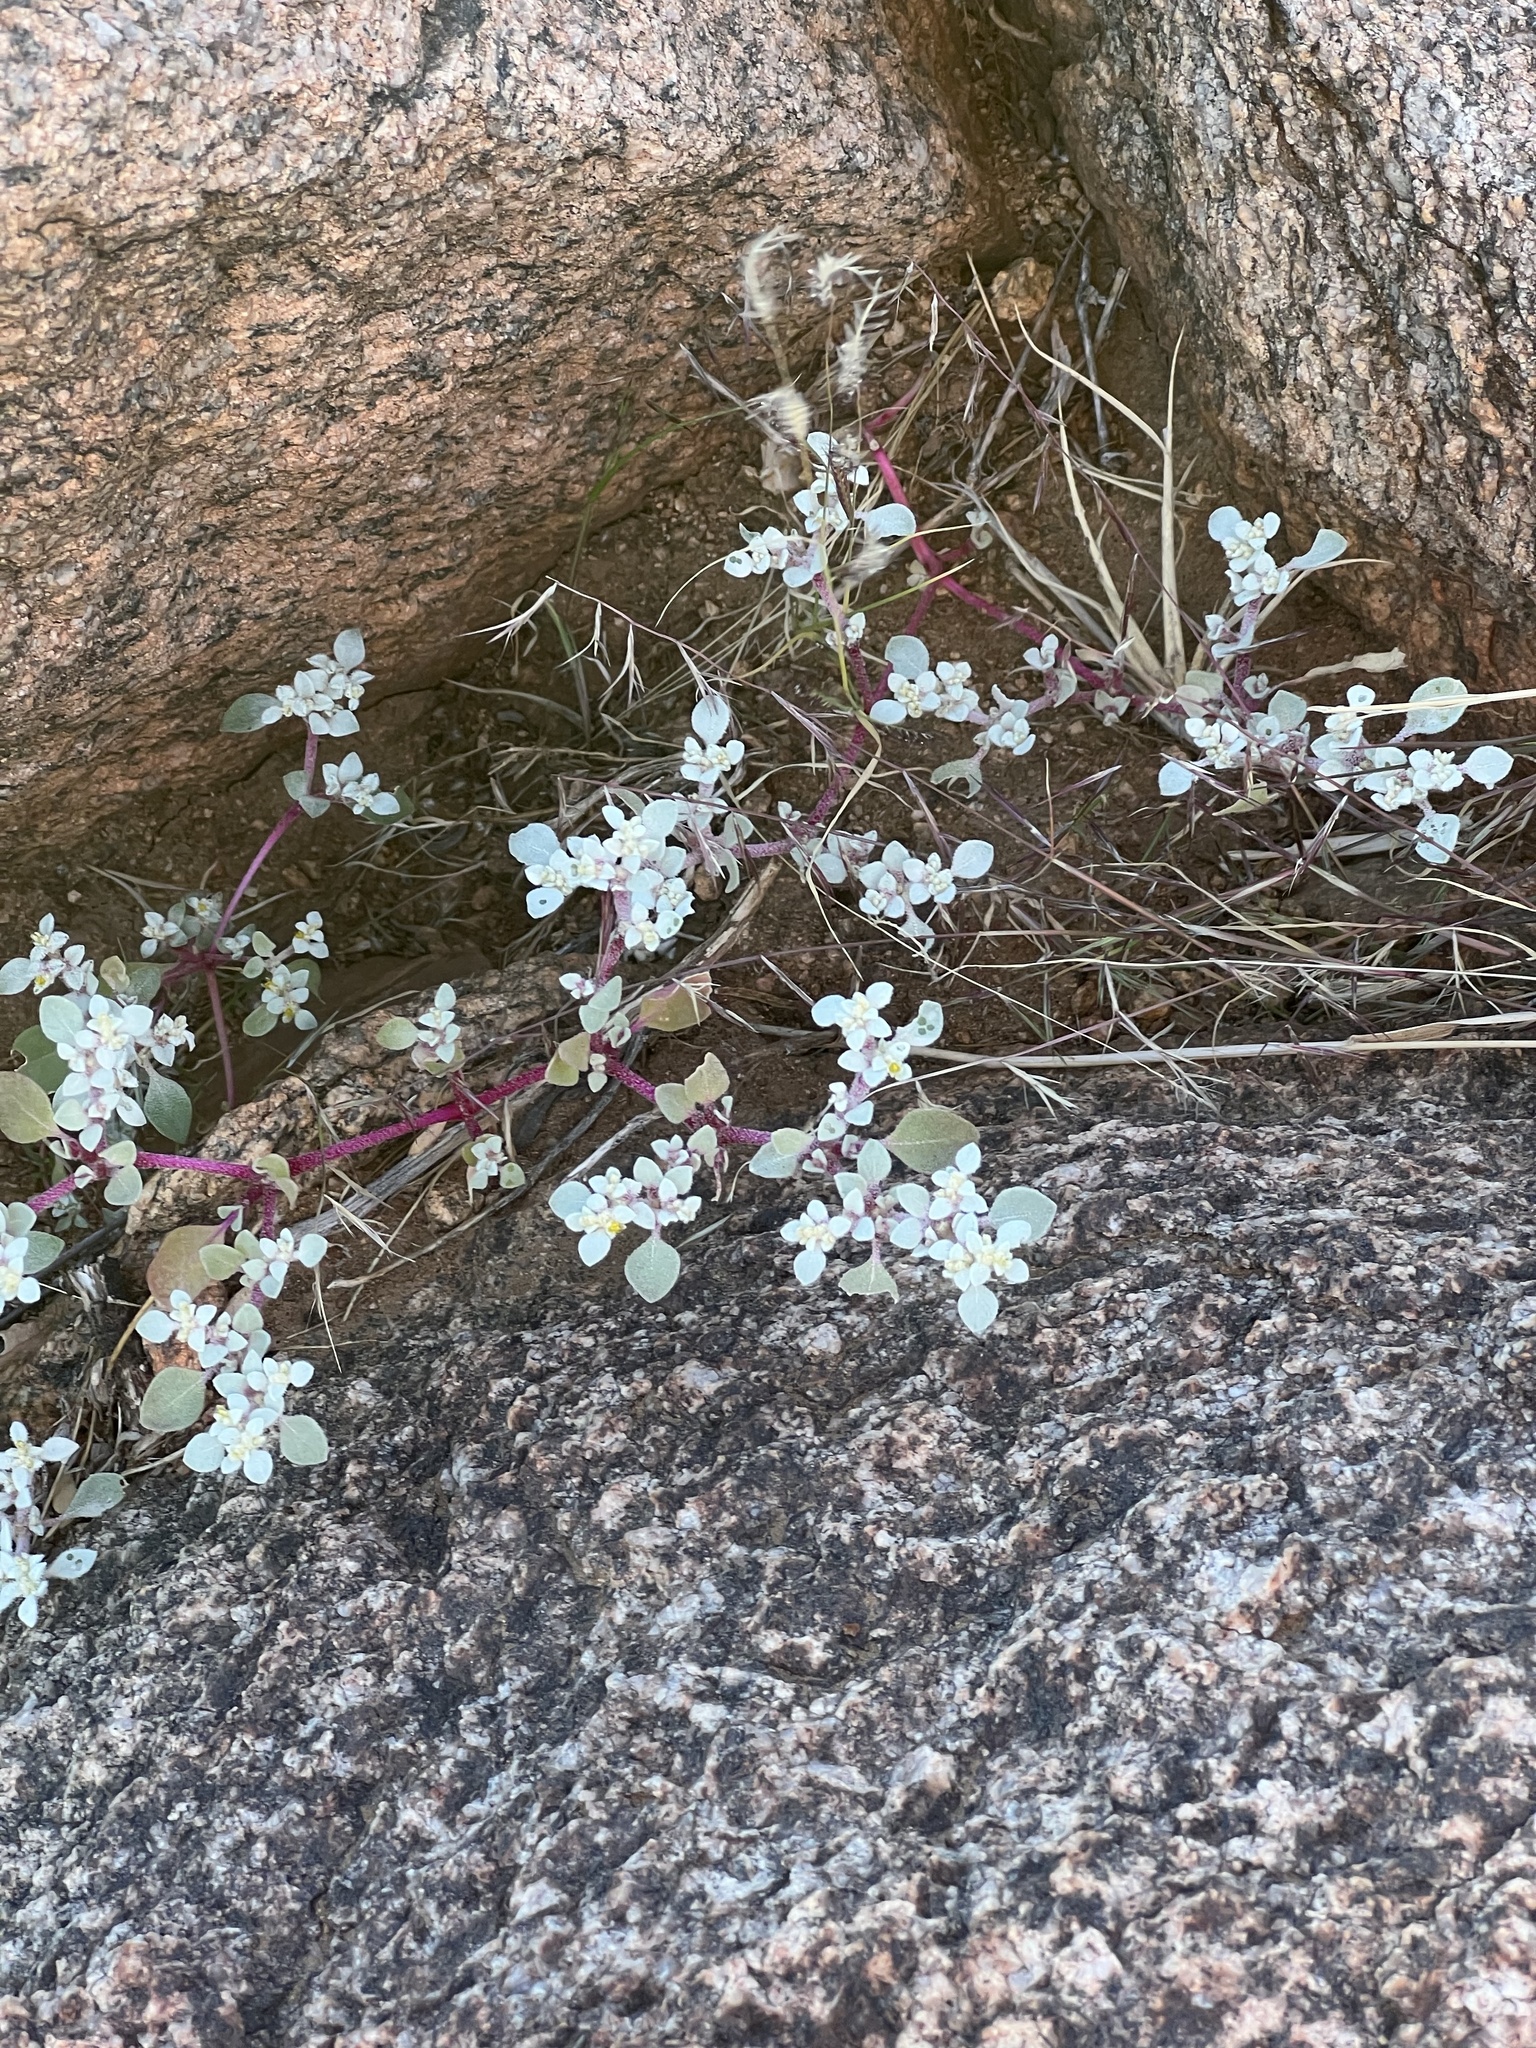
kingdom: Plantae
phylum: Tracheophyta
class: Magnoliopsida
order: Caryophyllales
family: Amaranthaceae
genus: Tidestromia
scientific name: Tidestromia lanuginosa
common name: Woolly tidestromia
